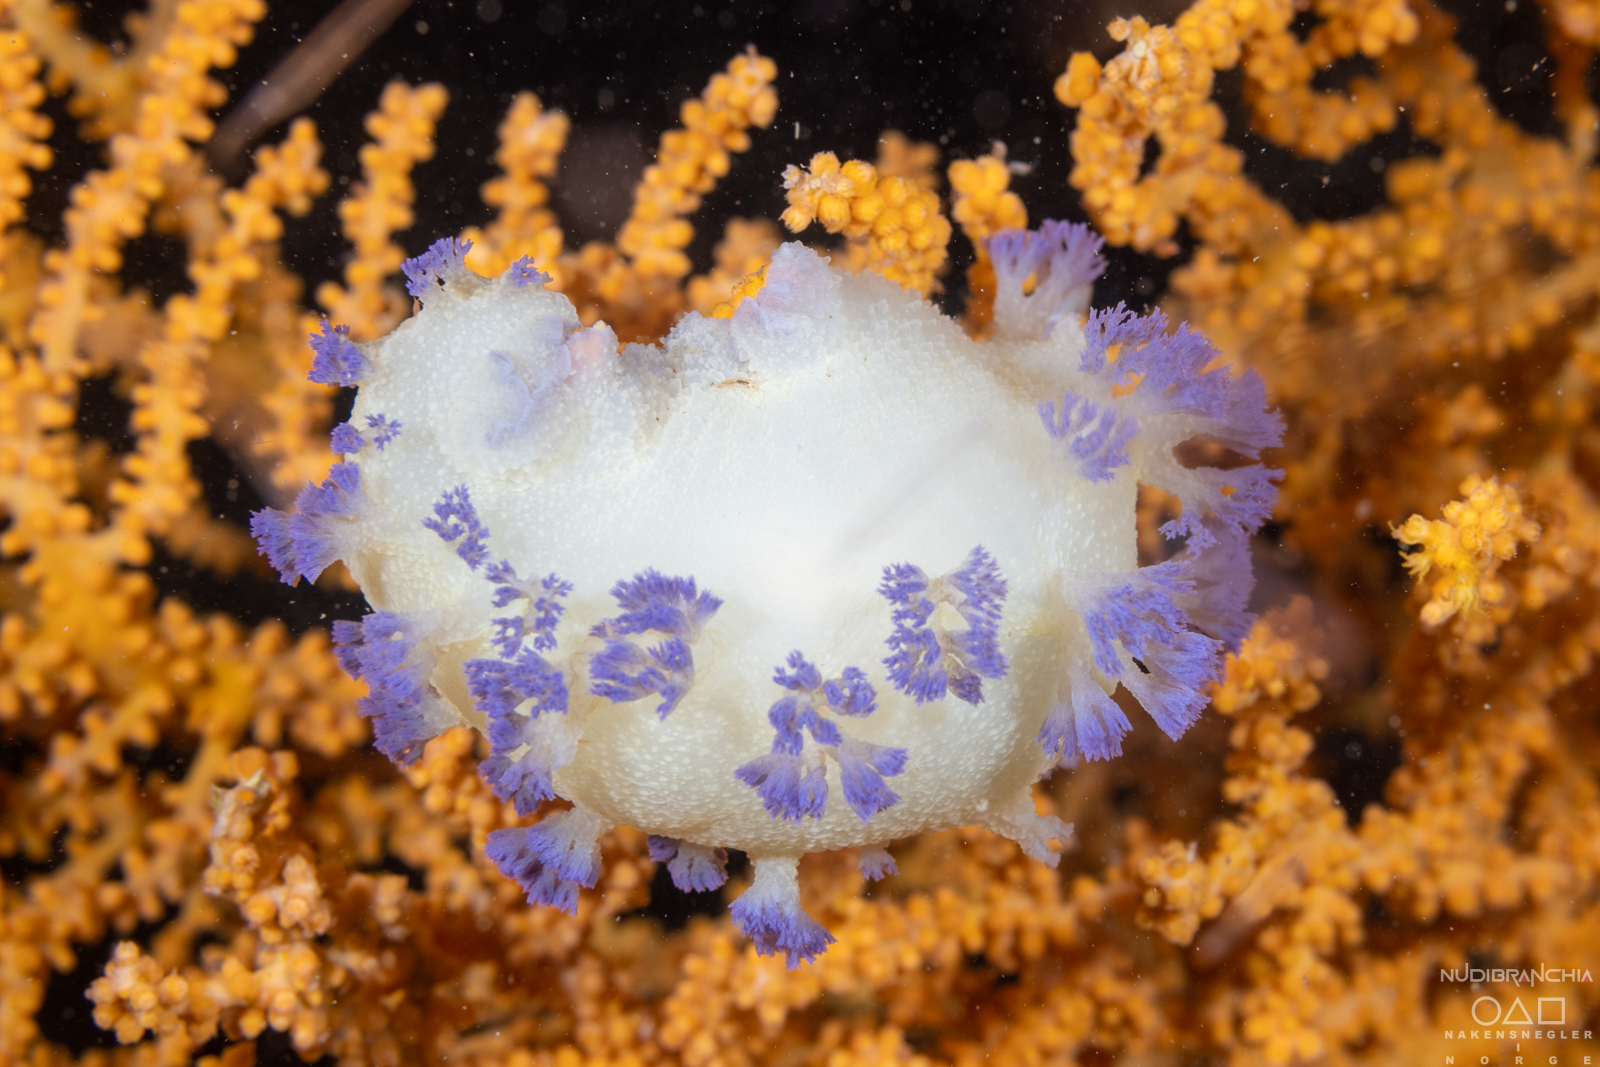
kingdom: Animalia
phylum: Mollusca
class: Gastropoda
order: Nudibranchia
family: Tritoniidae
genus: Tritonia
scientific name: Tritonia griegi
